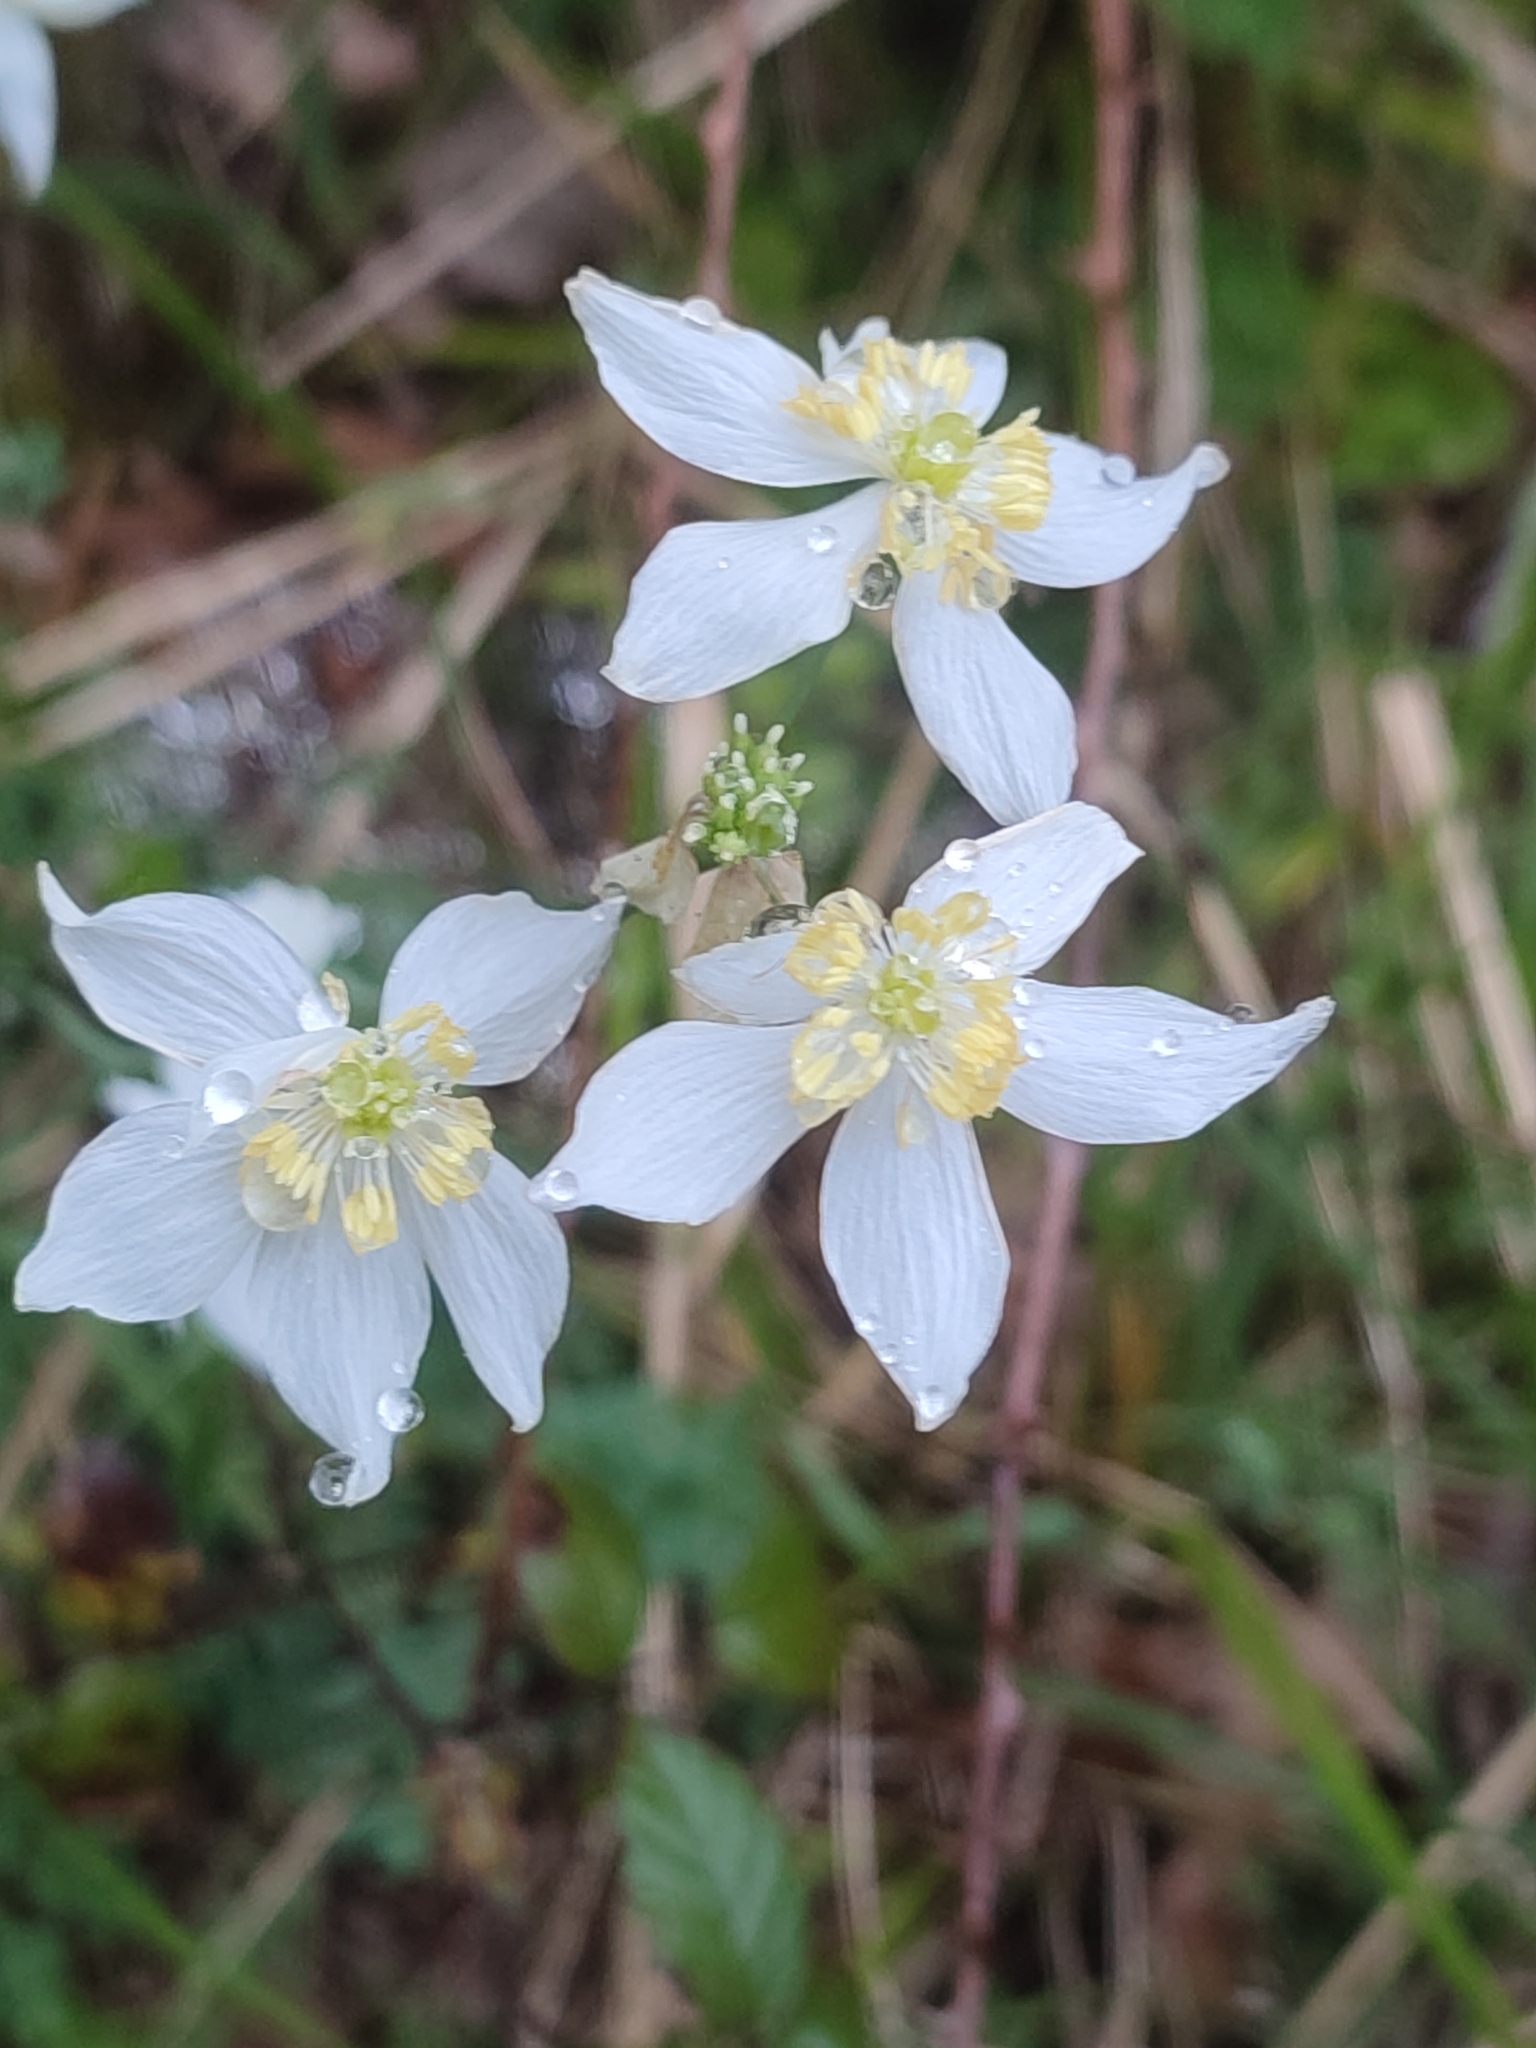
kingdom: Plantae
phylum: Tracheophyta
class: Magnoliopsida
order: Ranunculales
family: Ranunculaceae
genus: Thalictrum
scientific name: Thalictrum tuberosum
